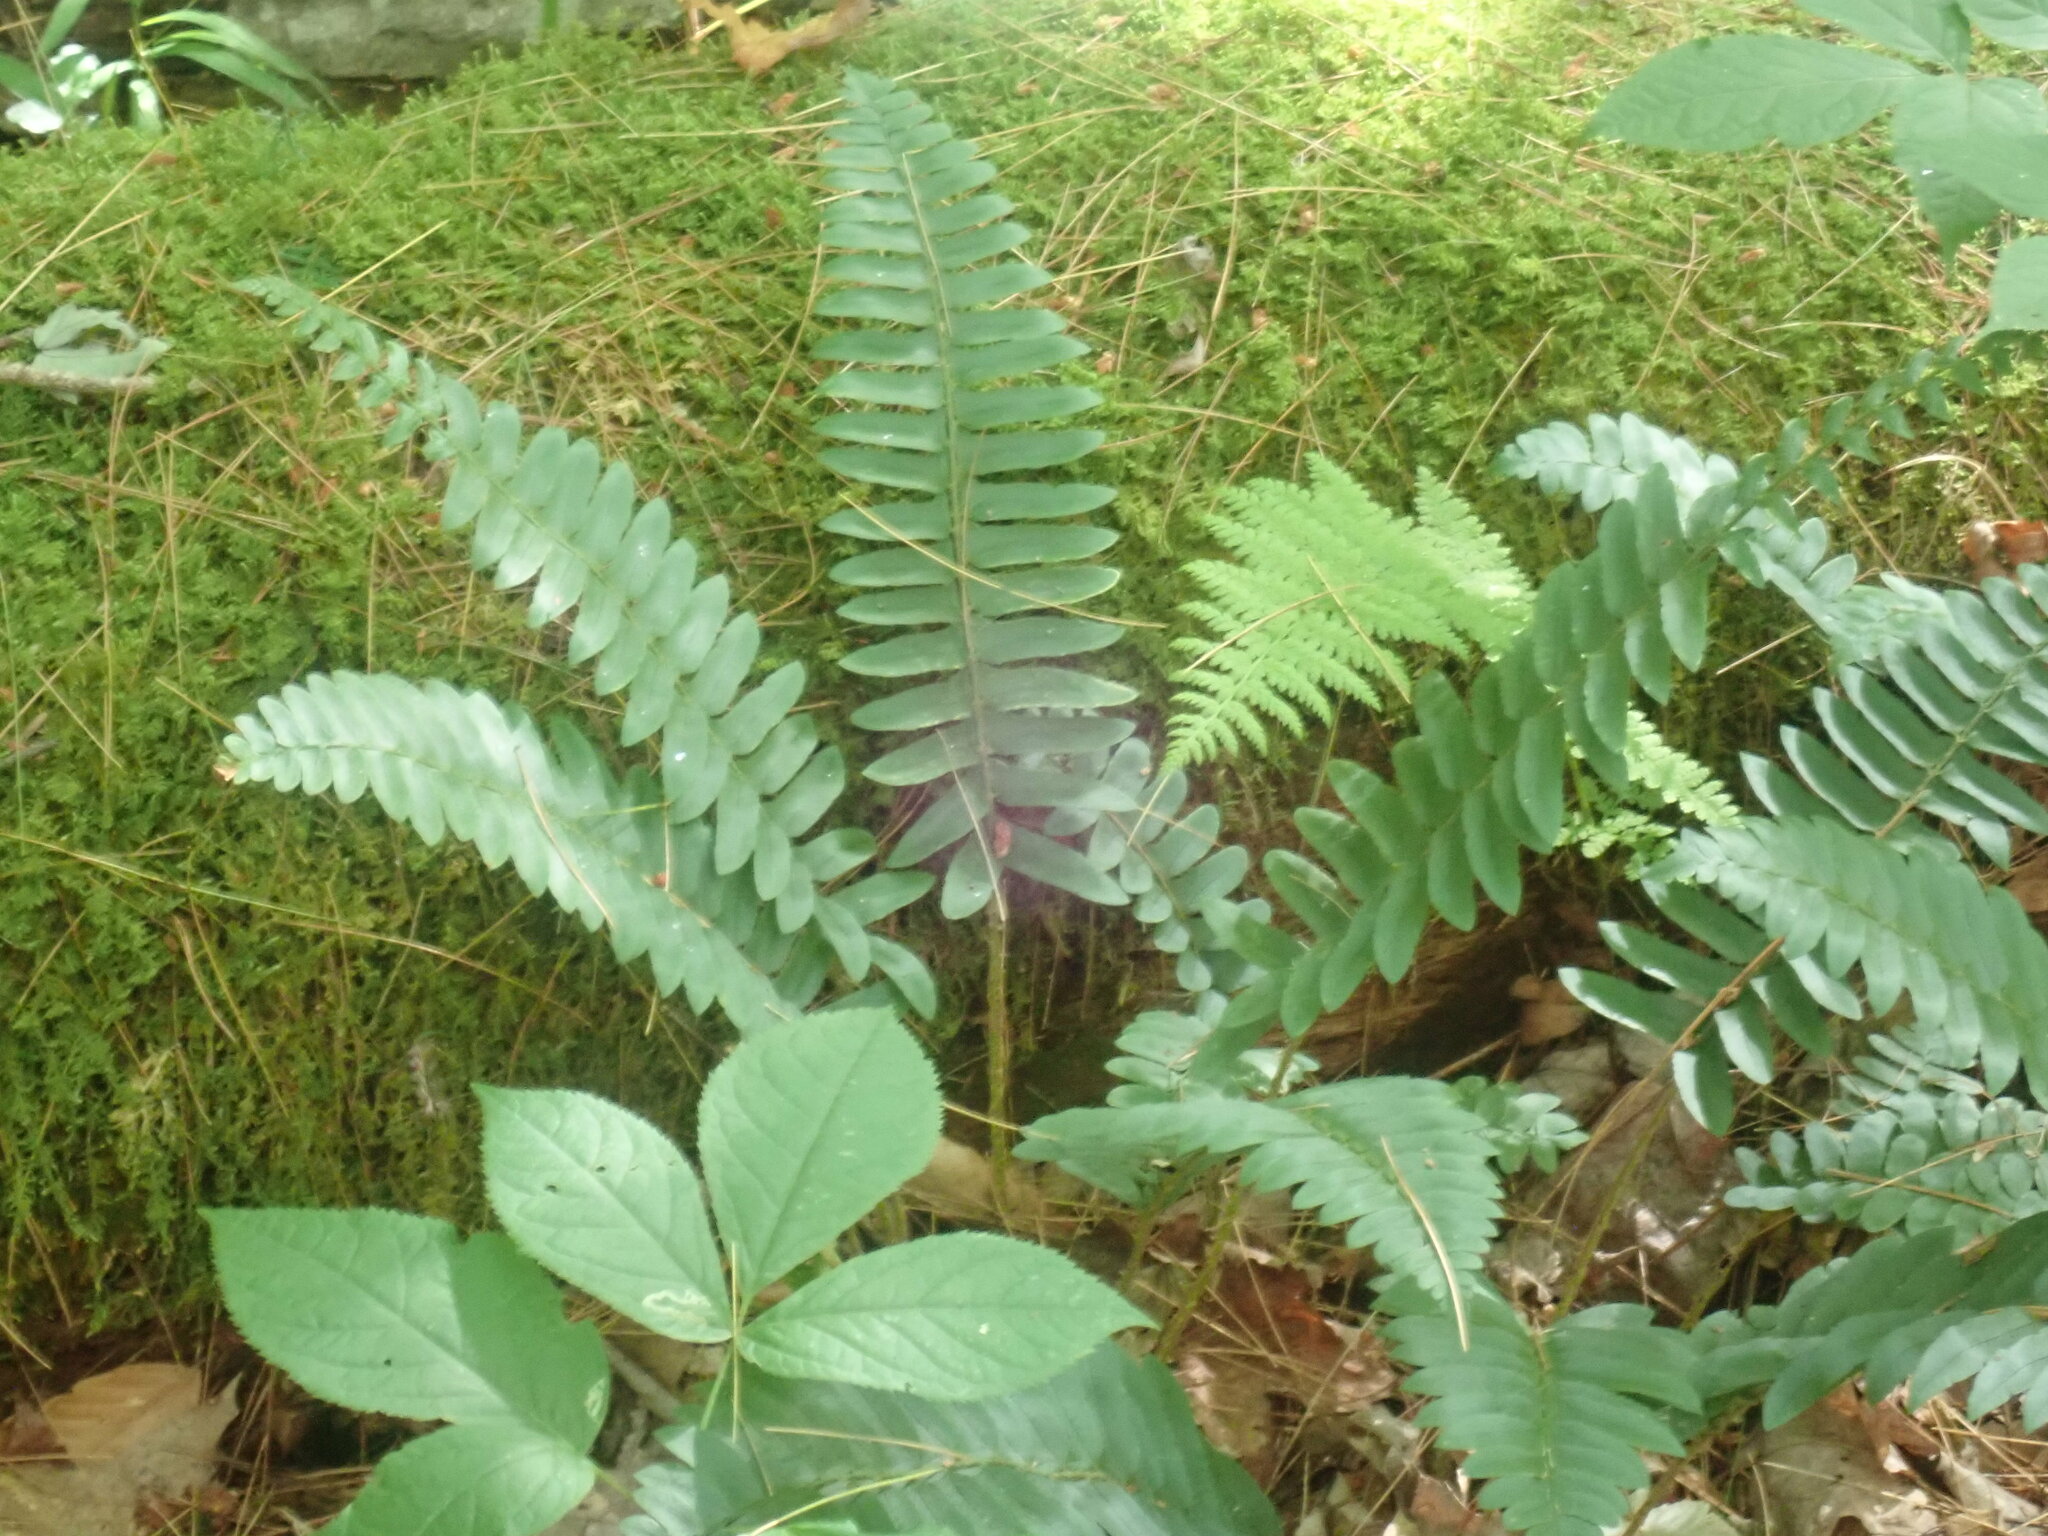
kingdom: Plantae
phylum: Tracheophyta
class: Polypodiopsida
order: Polypodiales
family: Dryopteridaceae
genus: Polystichum
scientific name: Polystichum acrostichoides
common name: Christmas fern
